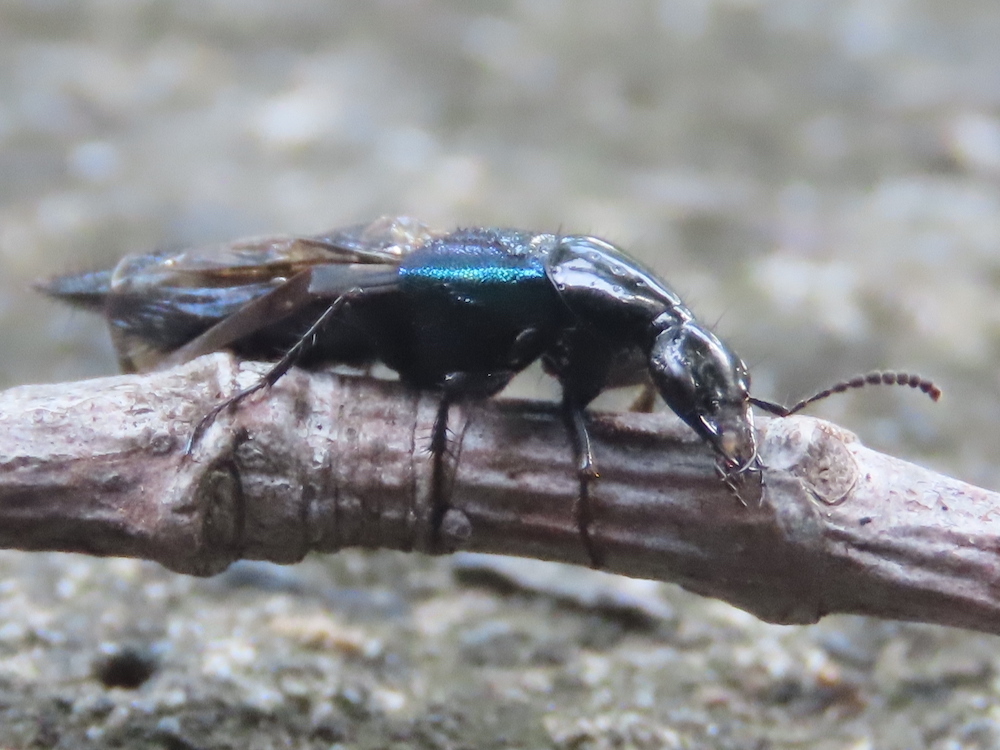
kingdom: Animalia
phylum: Arthropoda
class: Insecta
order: Coleoptera
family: Staphylinidae
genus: Philonthus
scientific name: Philonthus caeruleipennis
